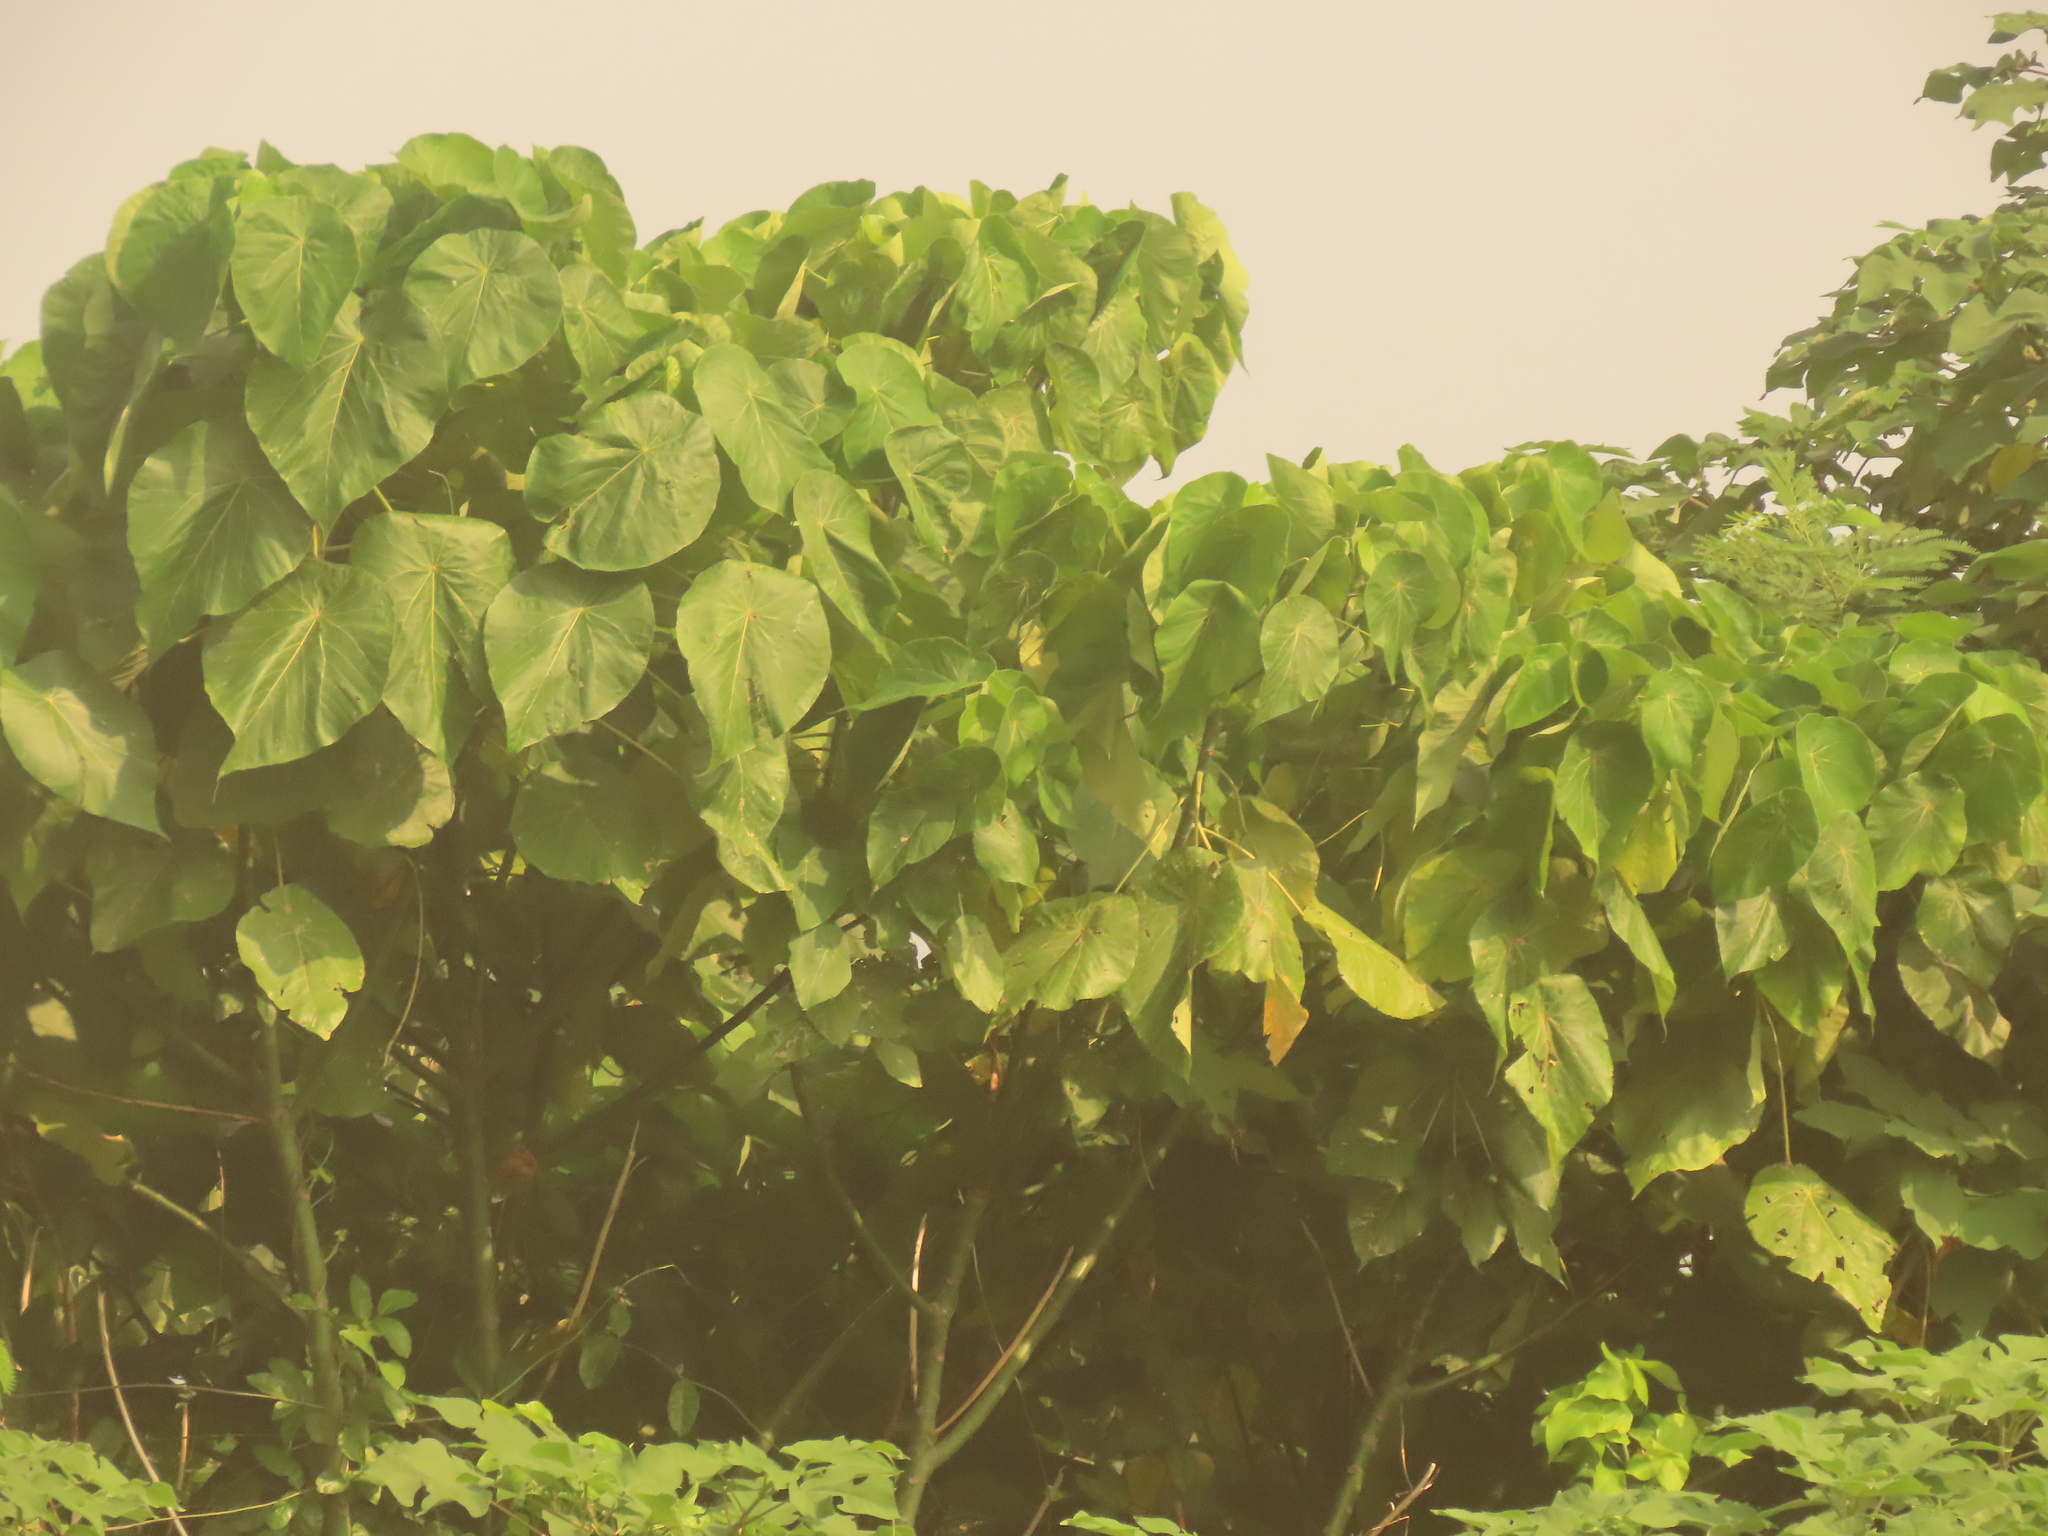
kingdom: Plantae
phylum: Tracheophyta
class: Magnoliopsida
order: Malpighiales
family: Euphorbiaceae
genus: Macaranga
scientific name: Macaranga tanarius
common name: Parasol leaf tree
